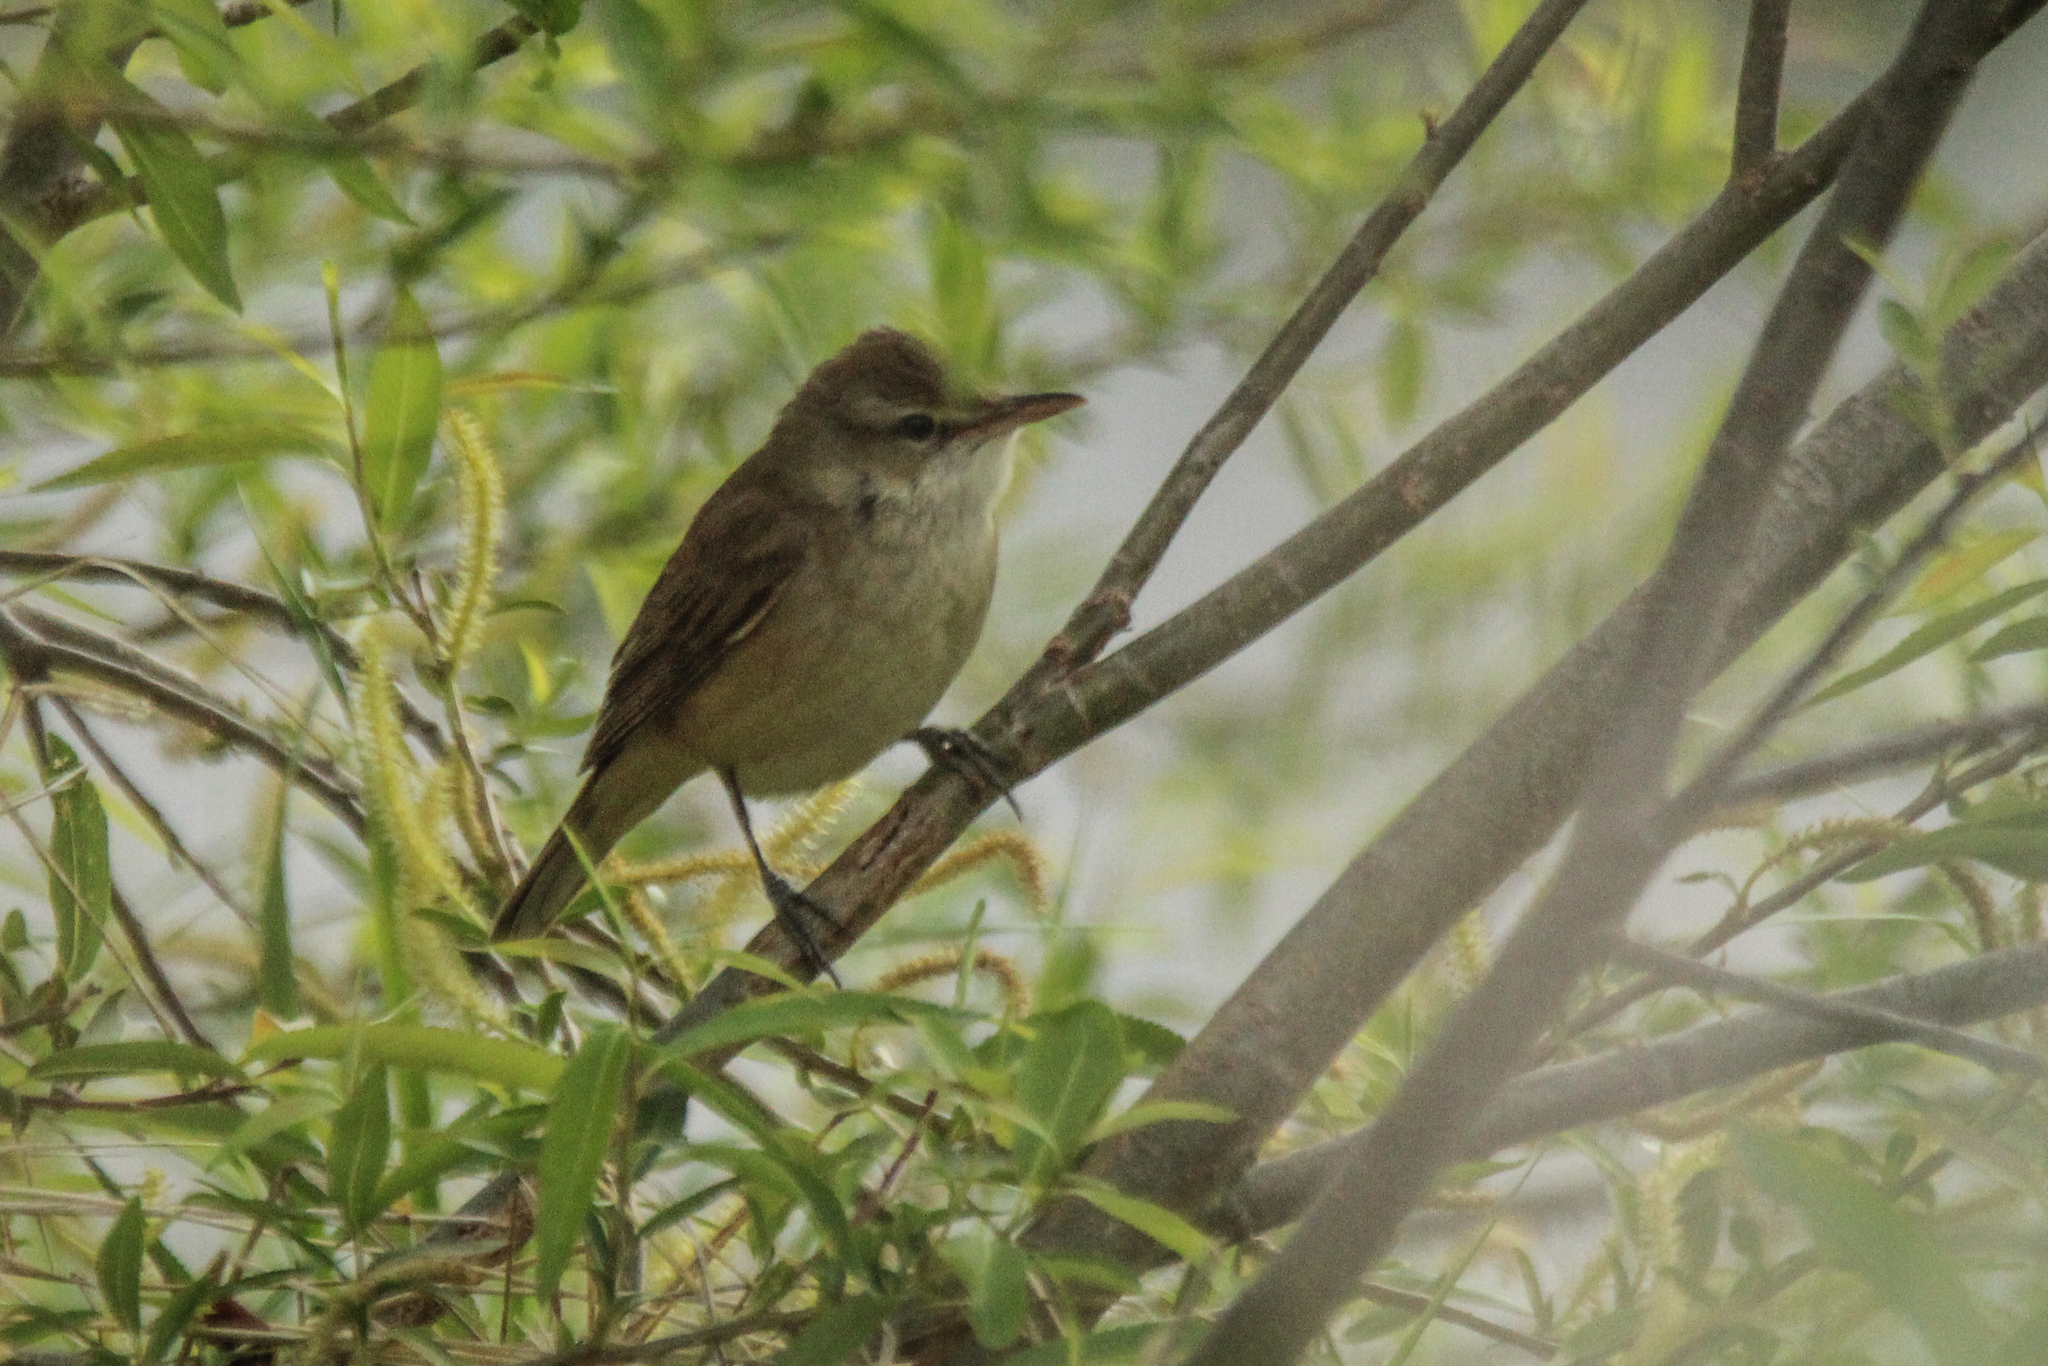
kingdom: Animalia
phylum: Chordata
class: Aves
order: Passeriformes
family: Acrocephalidae
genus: Acrocephalus
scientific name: Acrocephalus orientalis
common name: Oriental reed warbler
